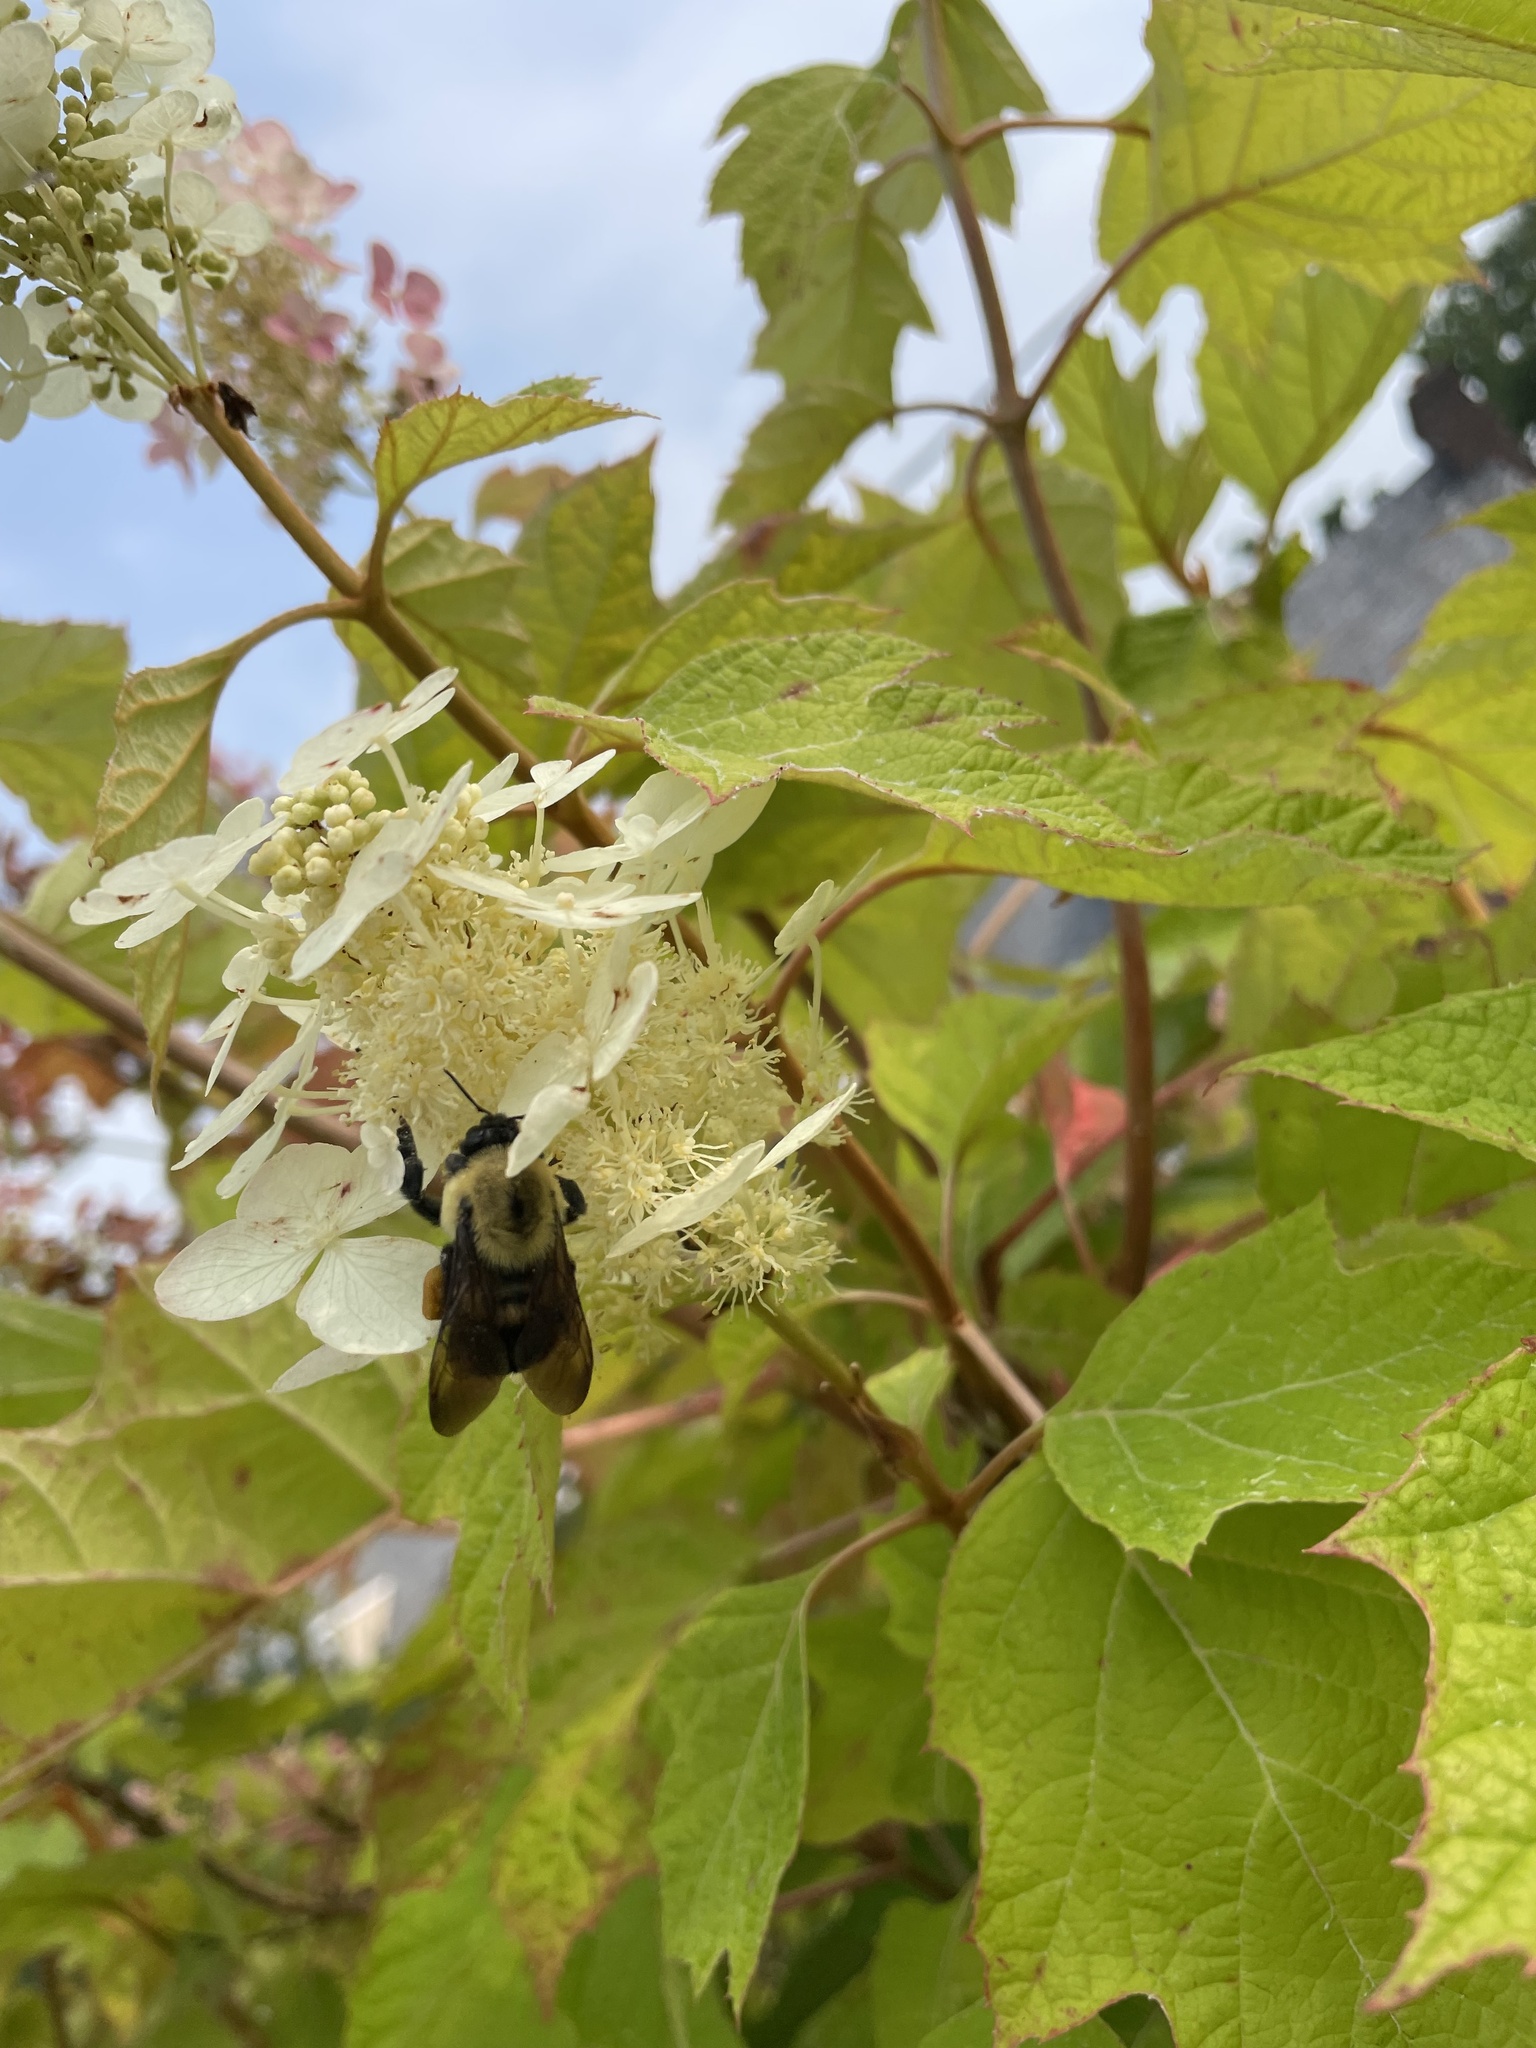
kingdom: Animalia
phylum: Arthropoda
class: Insecta
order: Hymenoptera
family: Apidae
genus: Bombus
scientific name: Bombus griseocollis
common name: Brown-belted bumble bee
